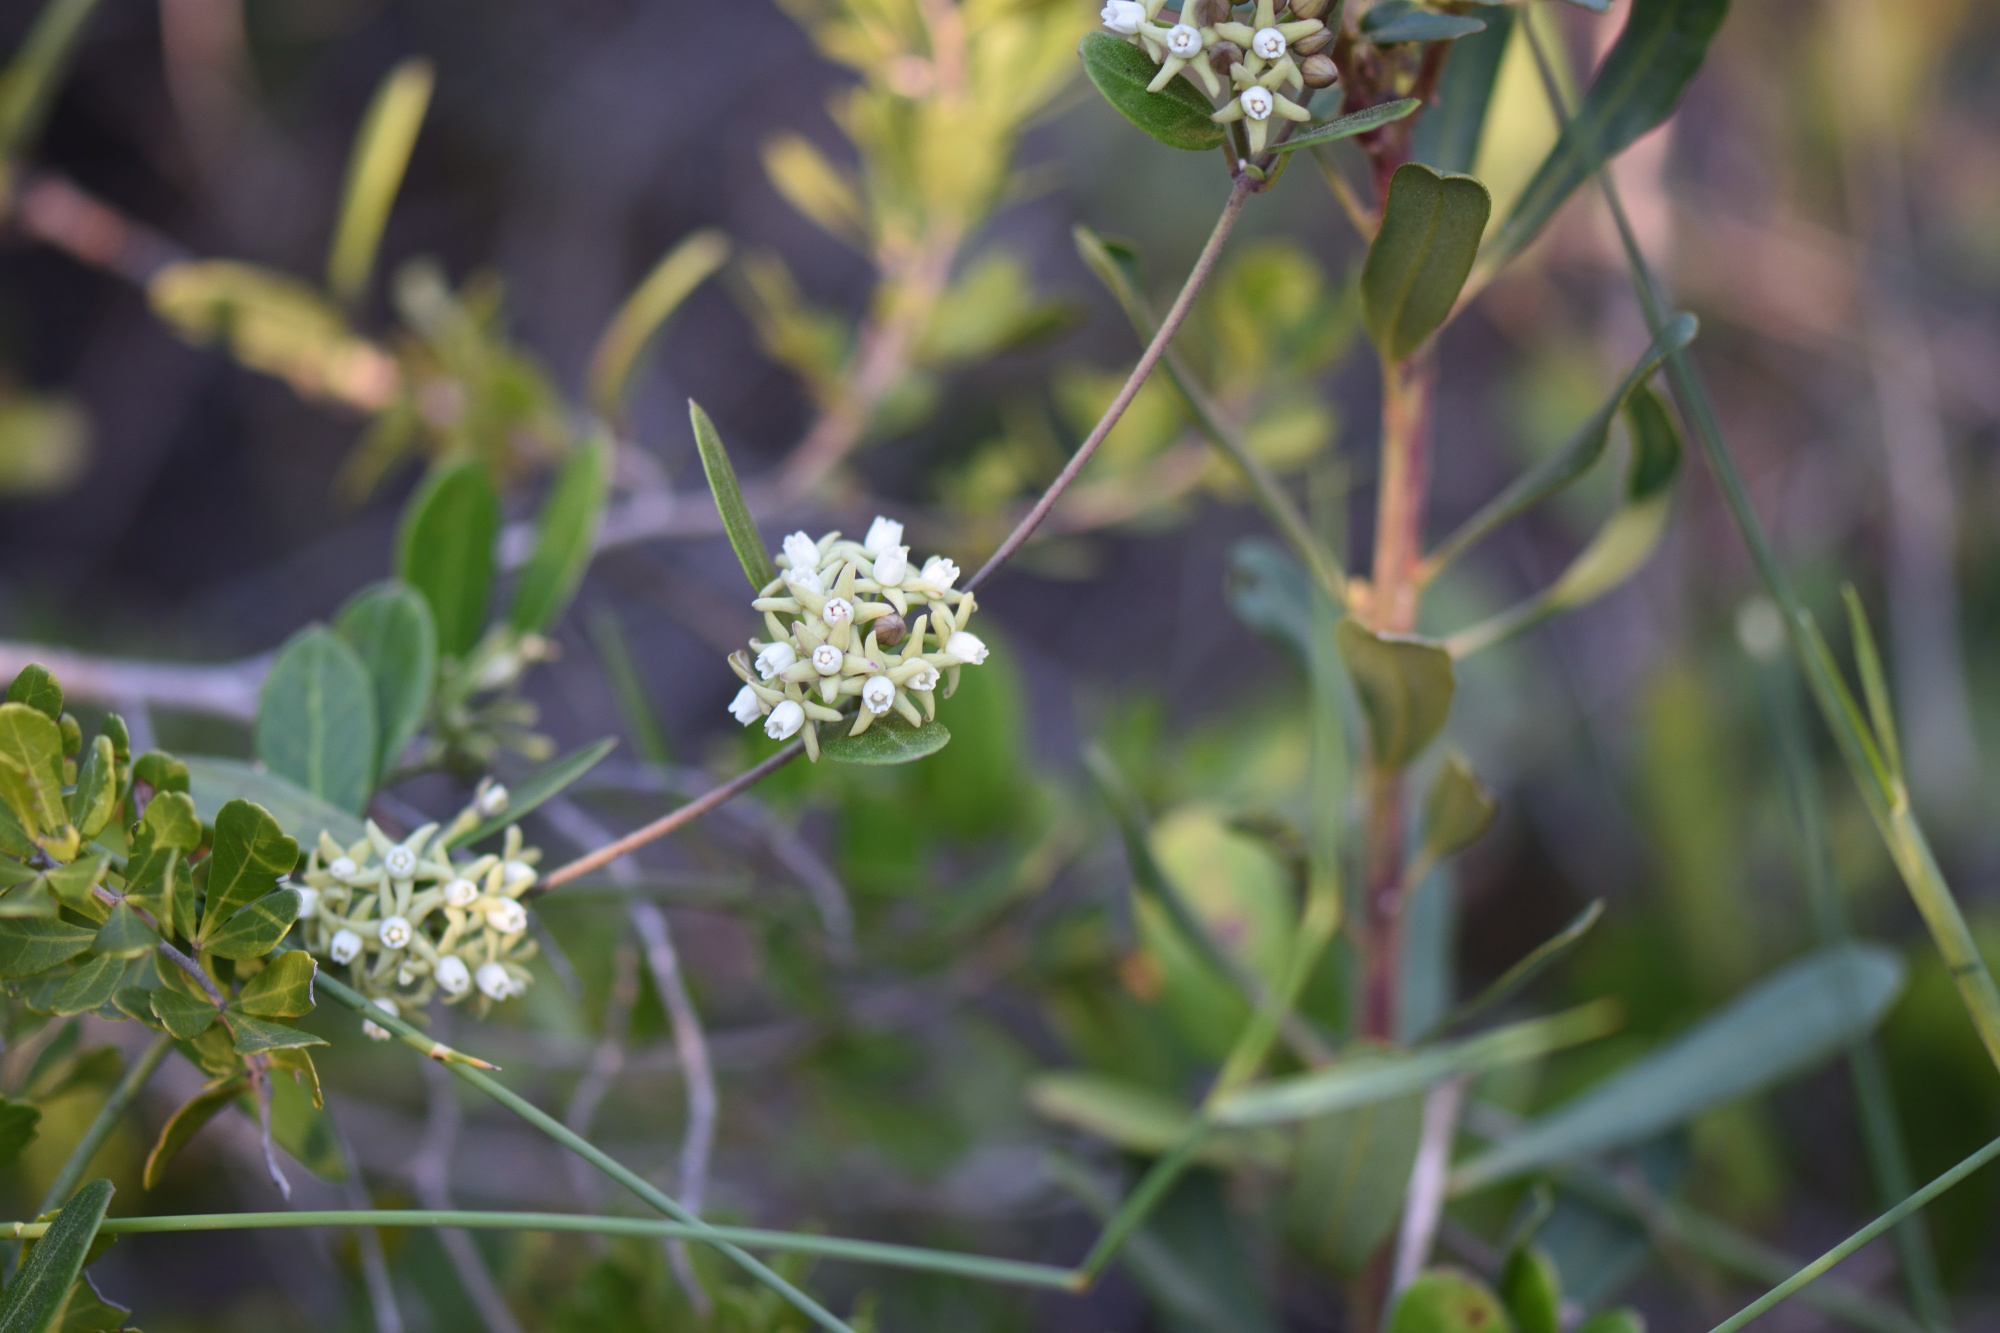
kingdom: Plantae
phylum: Tracheophyta
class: Magnoliopsida
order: Gentianales
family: Apocynaceae
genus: Cynanchum
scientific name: Cynanchum ellipticum
